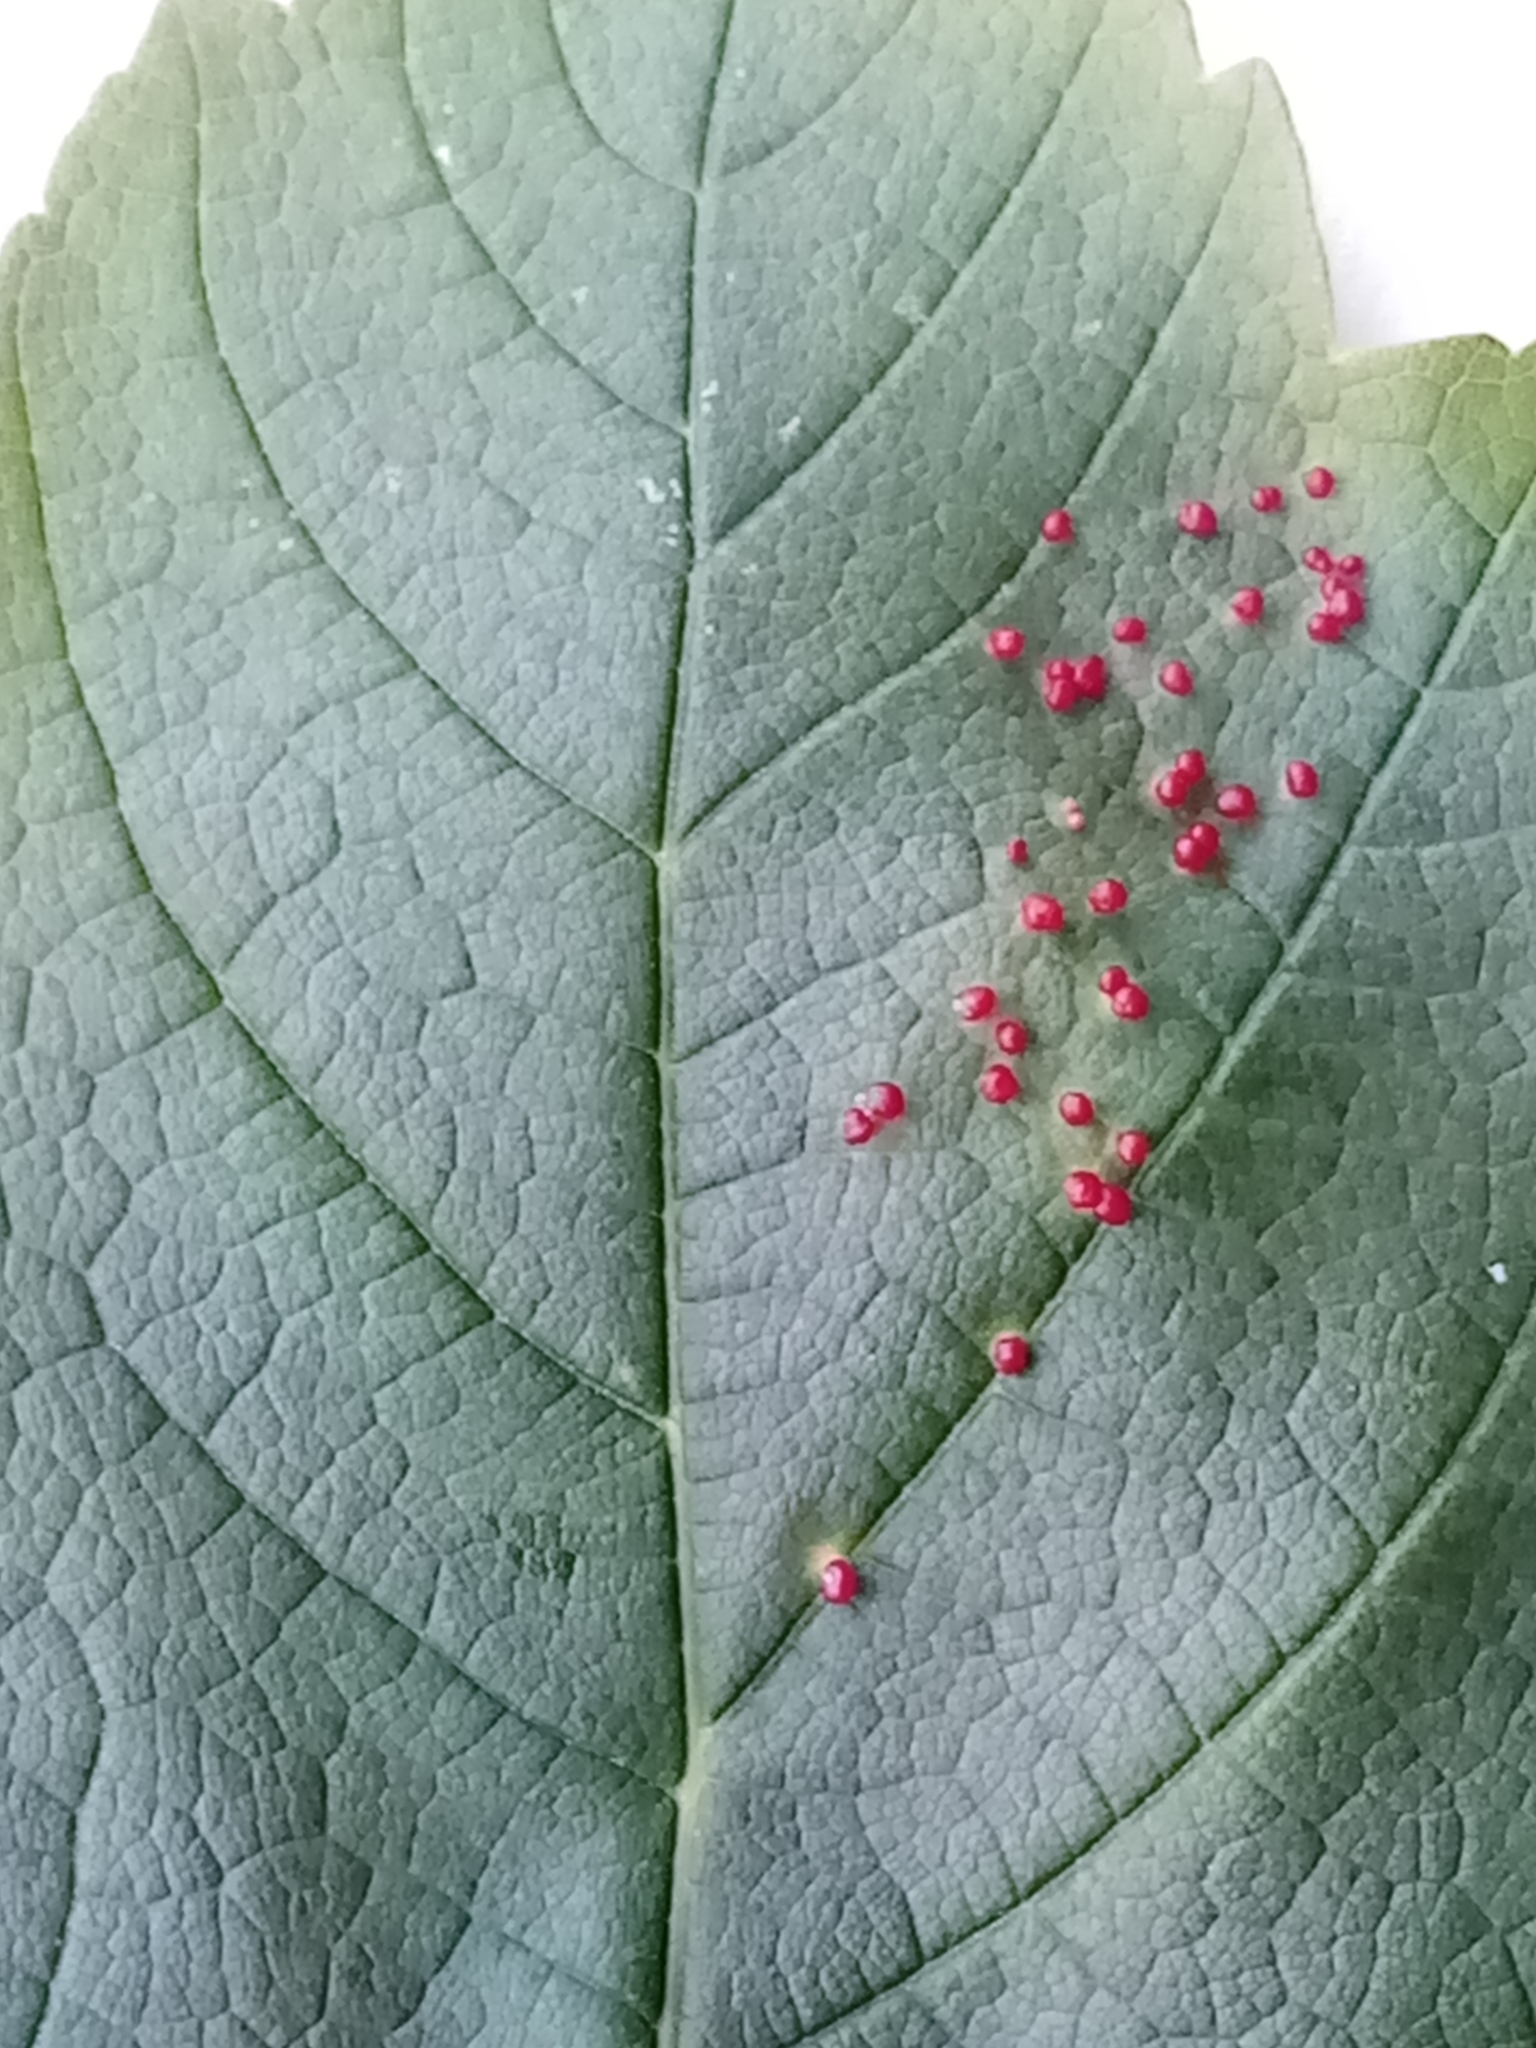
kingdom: Animalia
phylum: Arthropoda
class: Arachnida
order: Trombidiformes
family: Eriophyidae
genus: Aceria
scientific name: Aceria cephaloneus
